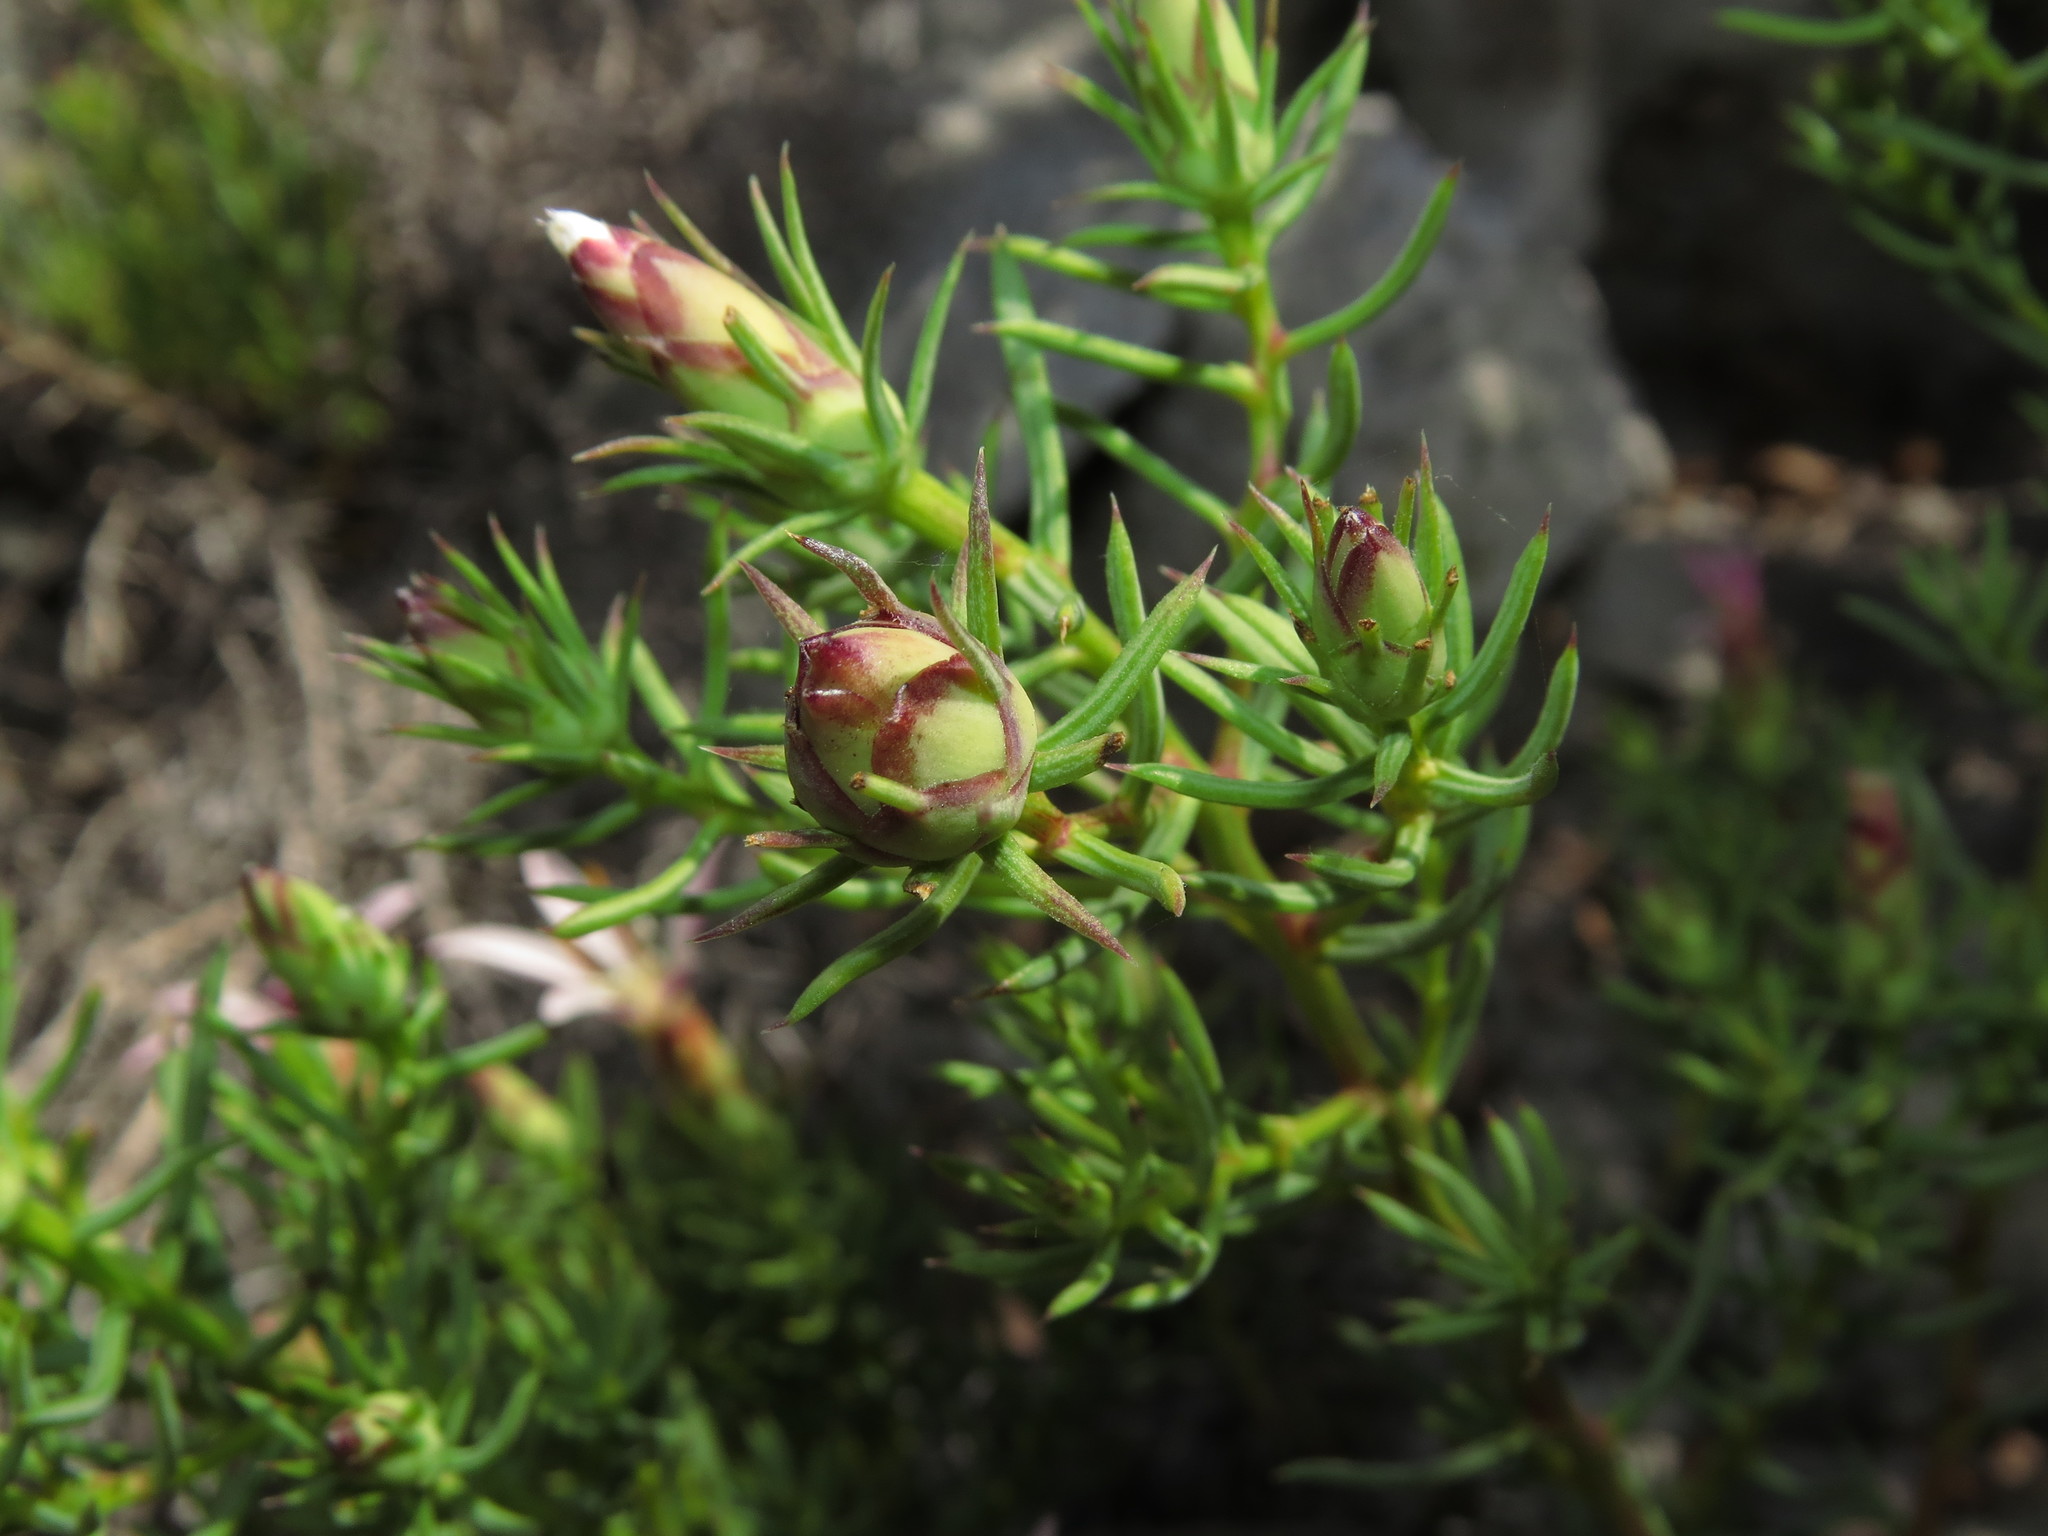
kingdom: Plantae
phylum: Tracheophyta
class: Magnoliopsida
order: Asterales
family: Asteraceae
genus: Mutisia
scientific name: Mutisia acerosa
